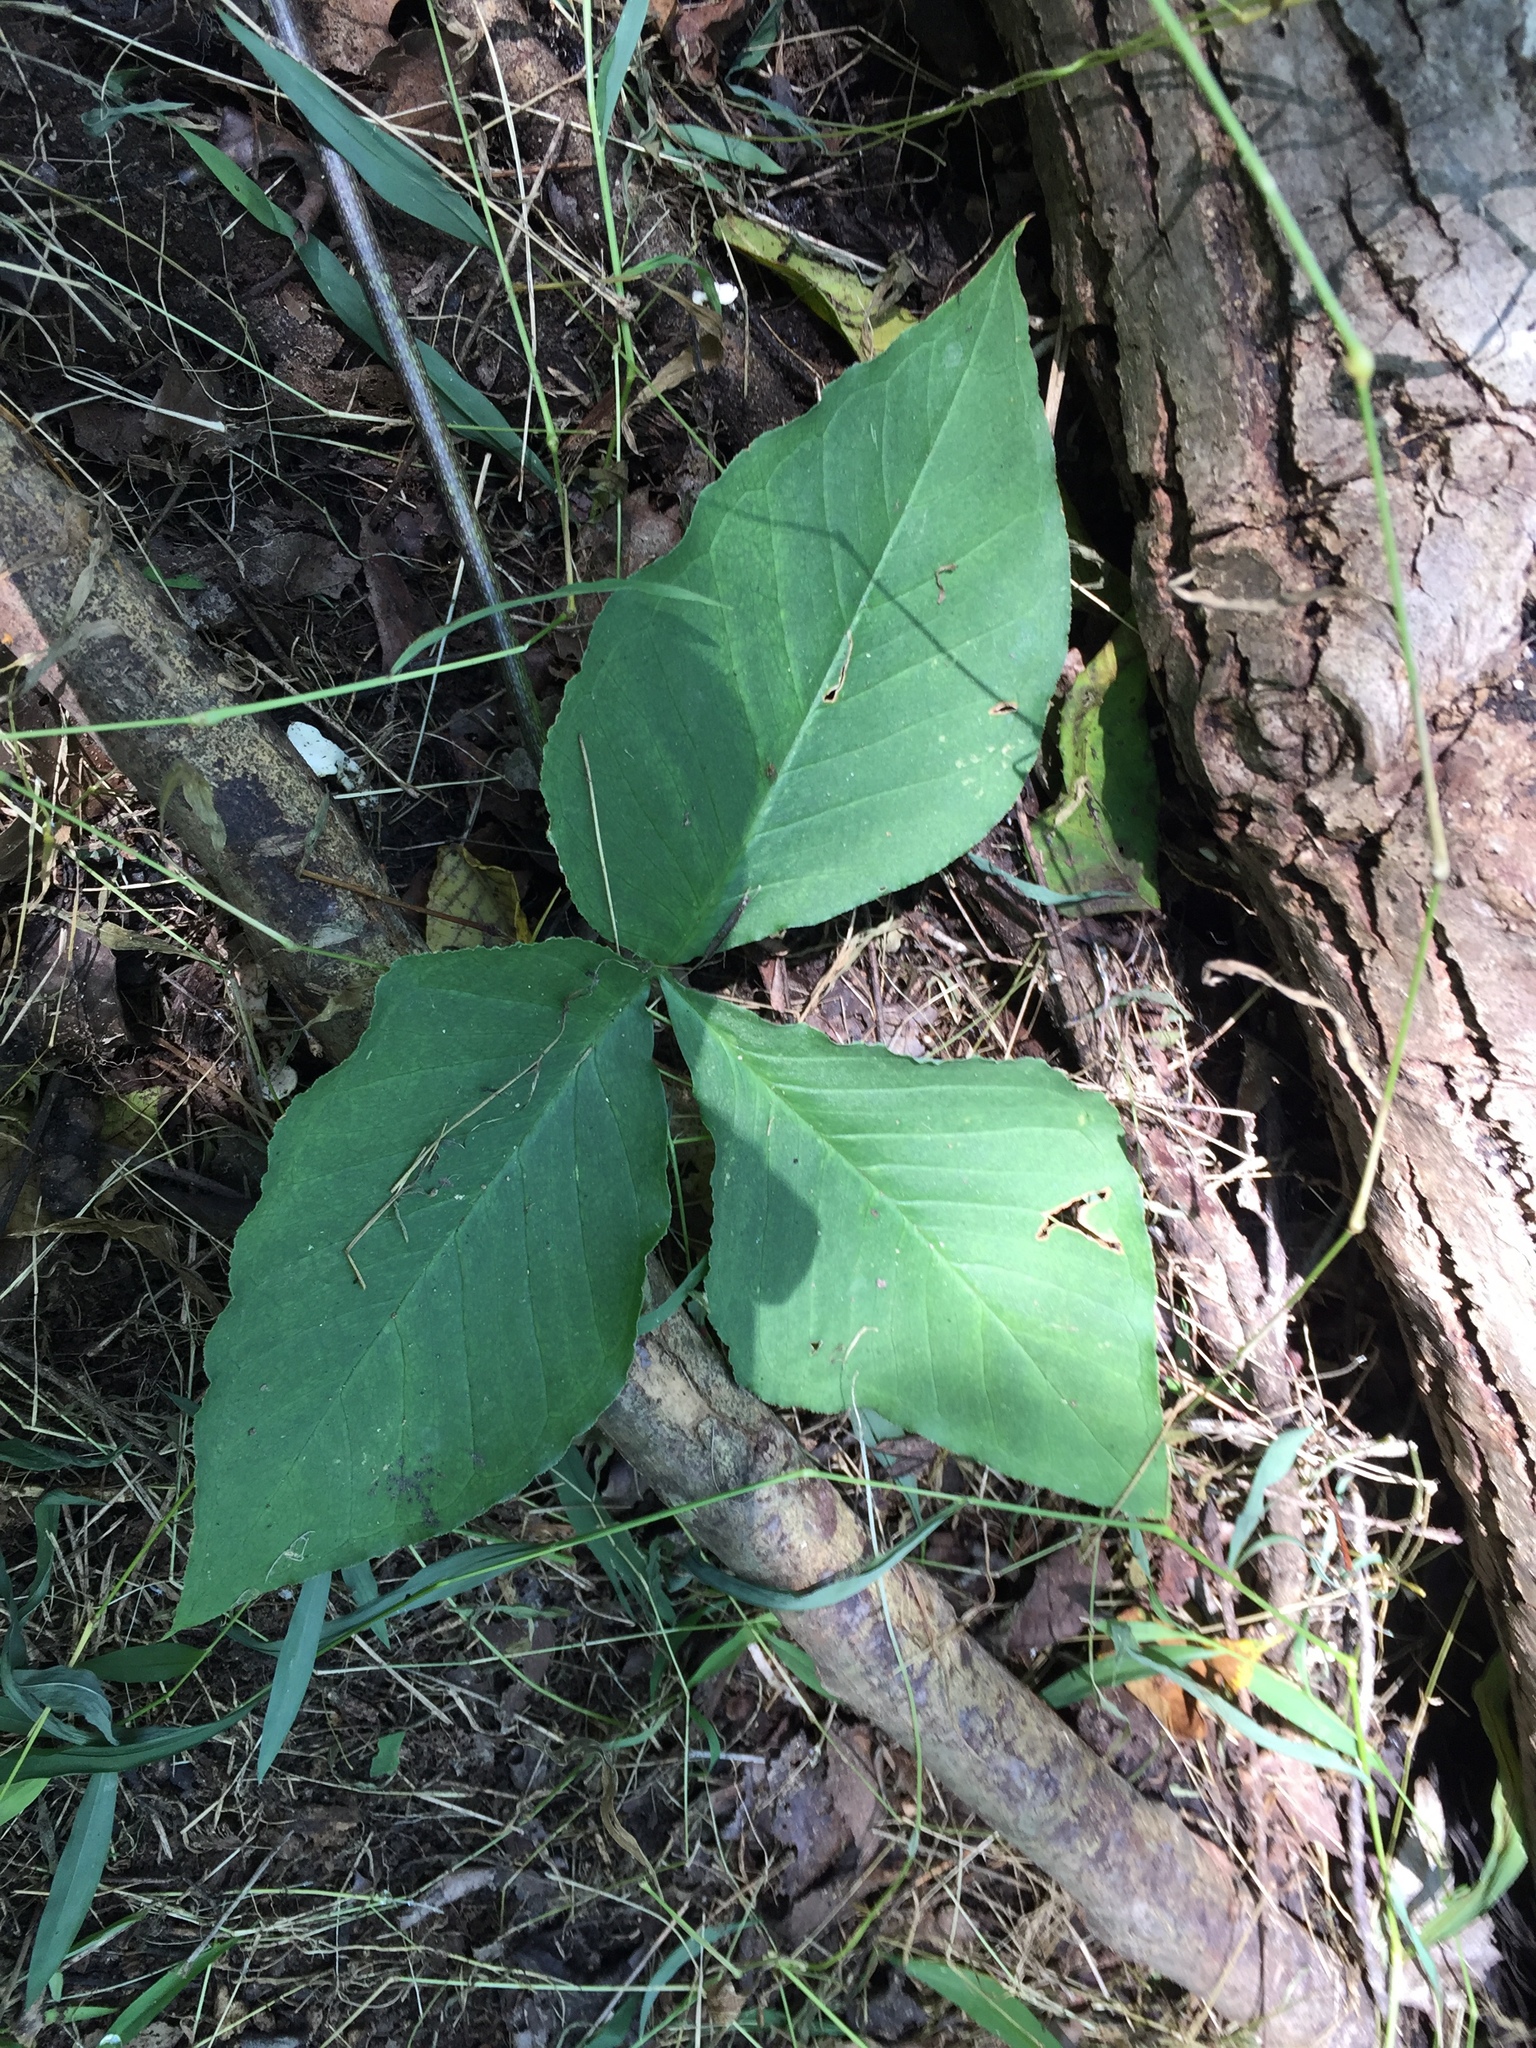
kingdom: Plantae
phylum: Tracheophyta
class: Liliopsida
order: Alismatales
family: Araceae
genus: Arisaema
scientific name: Arisaema triphyllum
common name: Jack-in-the-pulpit
